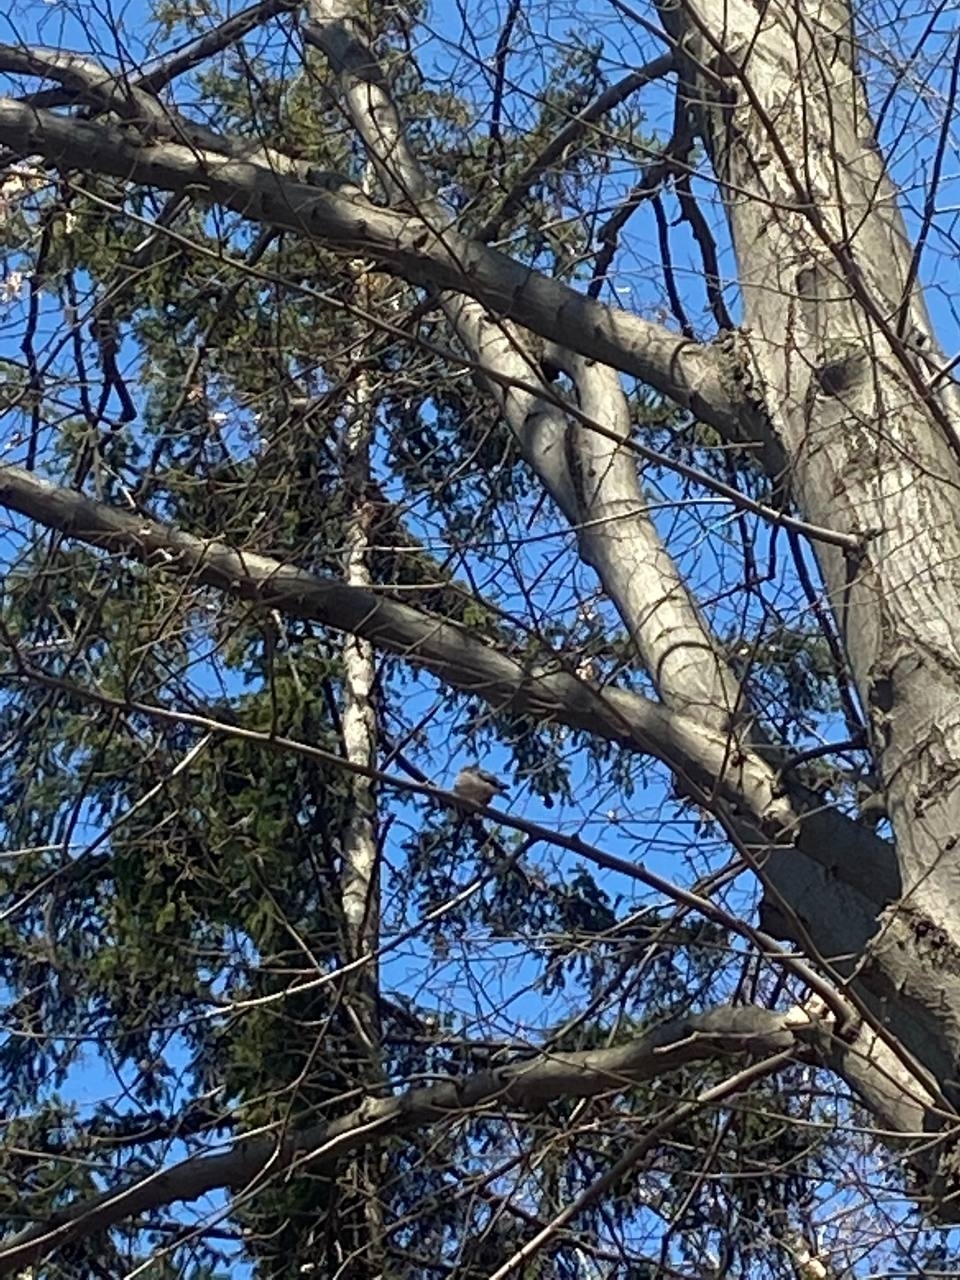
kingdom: Animalia
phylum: Chordata
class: Aves
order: Passeriformes
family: Fringillidae
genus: Fringilla
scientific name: Fringilla coelebs
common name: Common chaffinch
